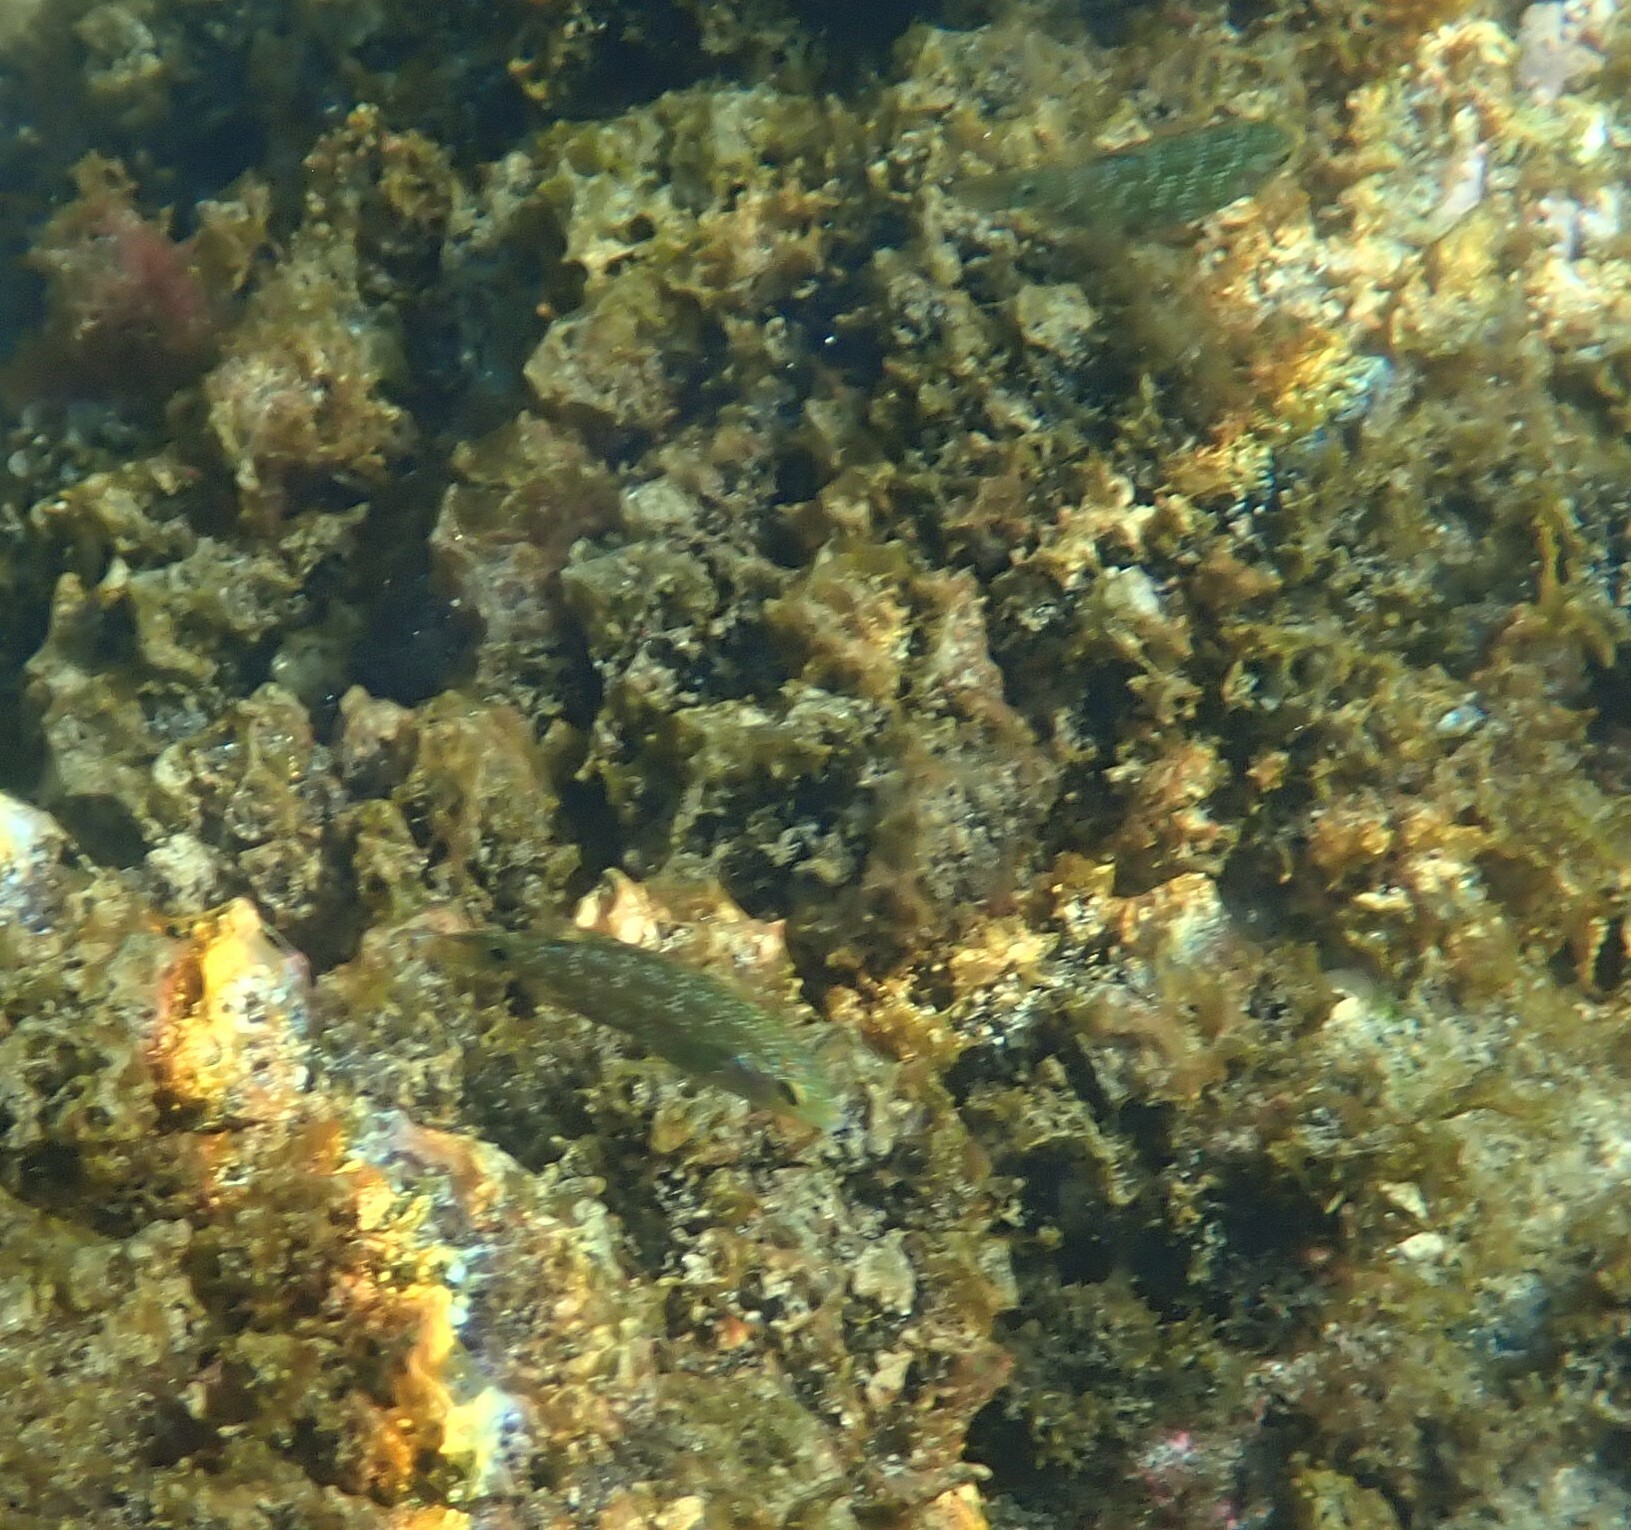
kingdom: Animalia
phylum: Chordata
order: Perciformes
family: Labridae
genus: Symphodus
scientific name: Symphodus caeruleus
